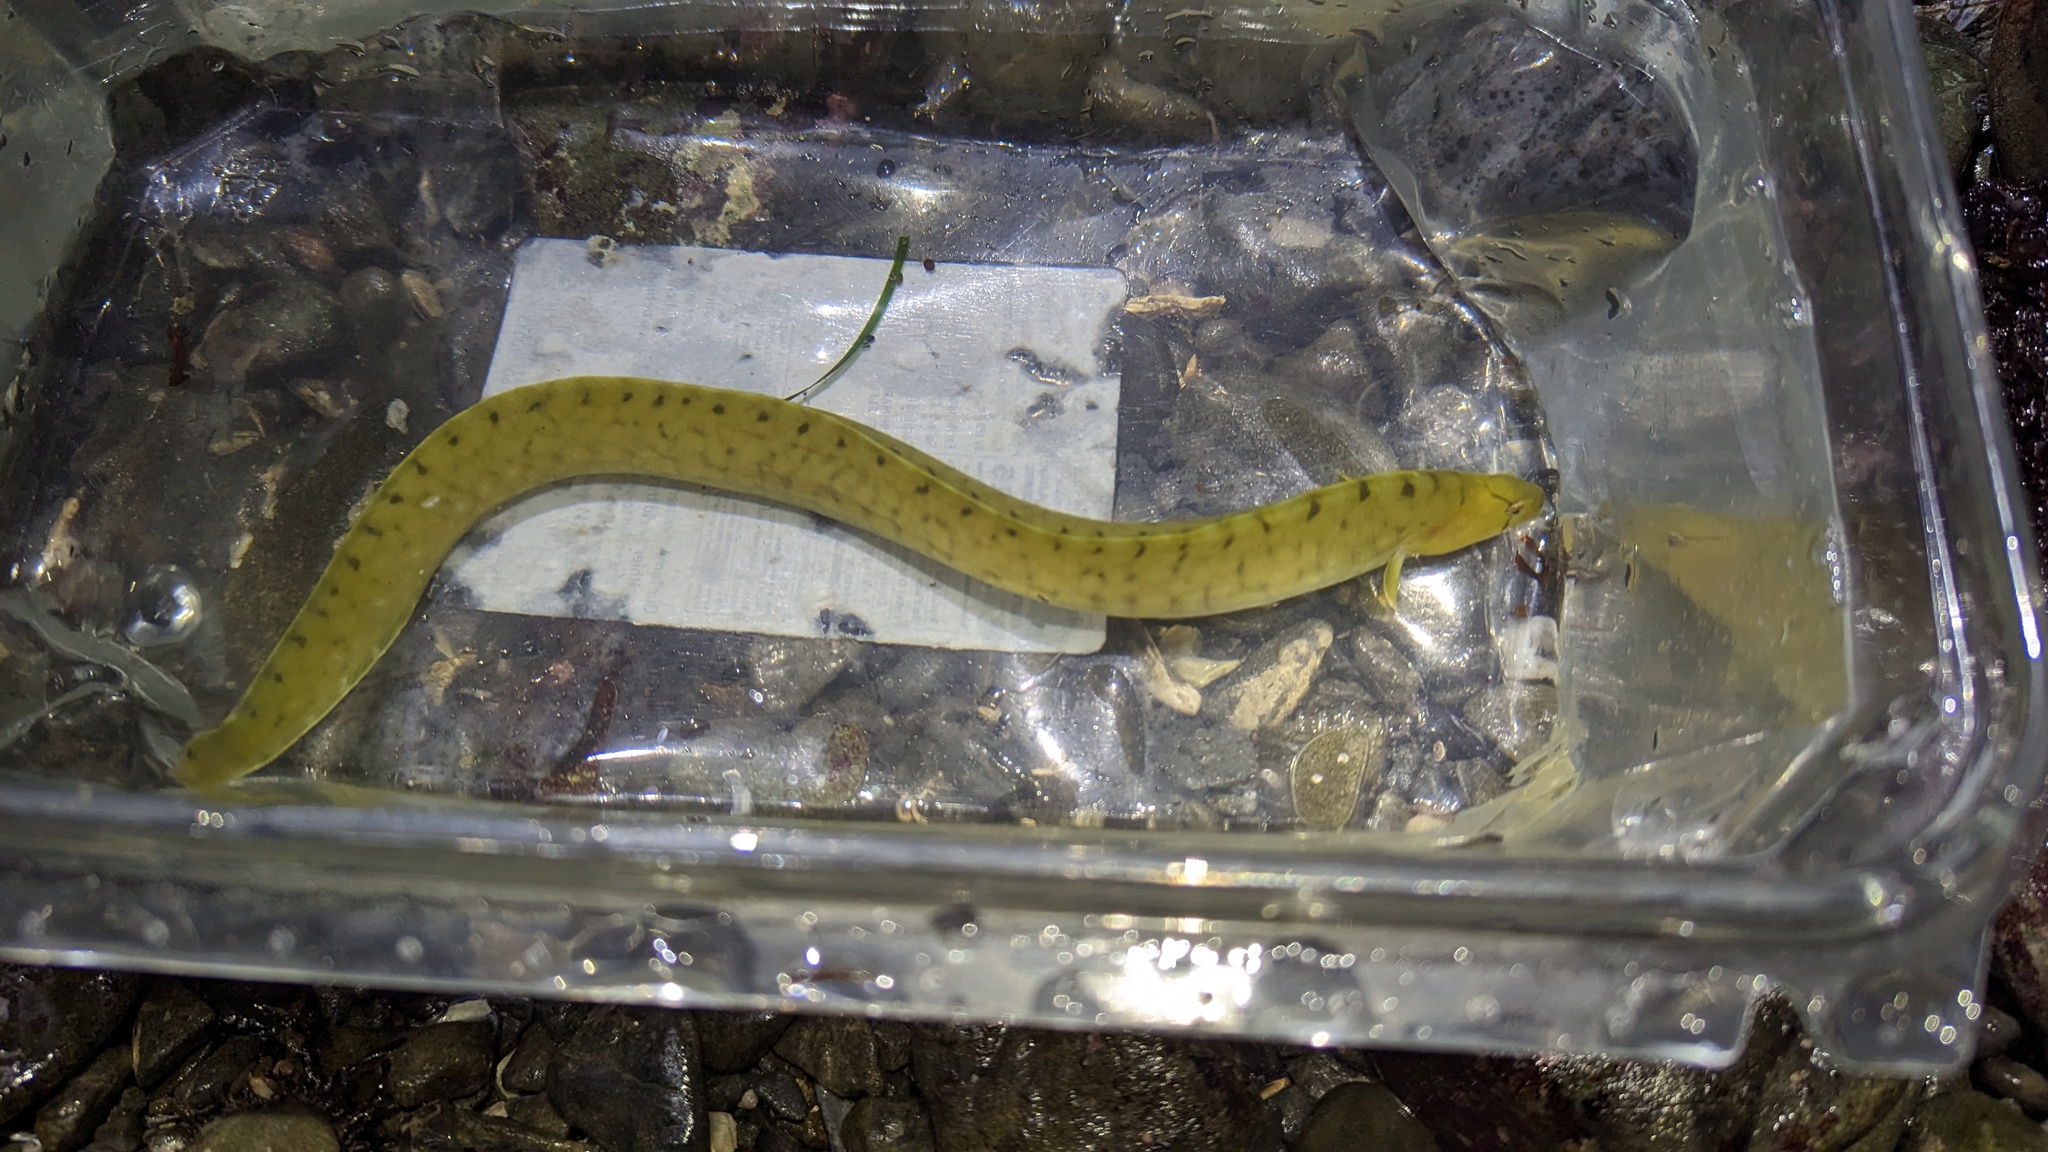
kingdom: Animalia
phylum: Chordata
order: Perciformes
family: Pholidae
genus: Apodichthys
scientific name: Apodichthys flavidus
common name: Penpoint gunnel
